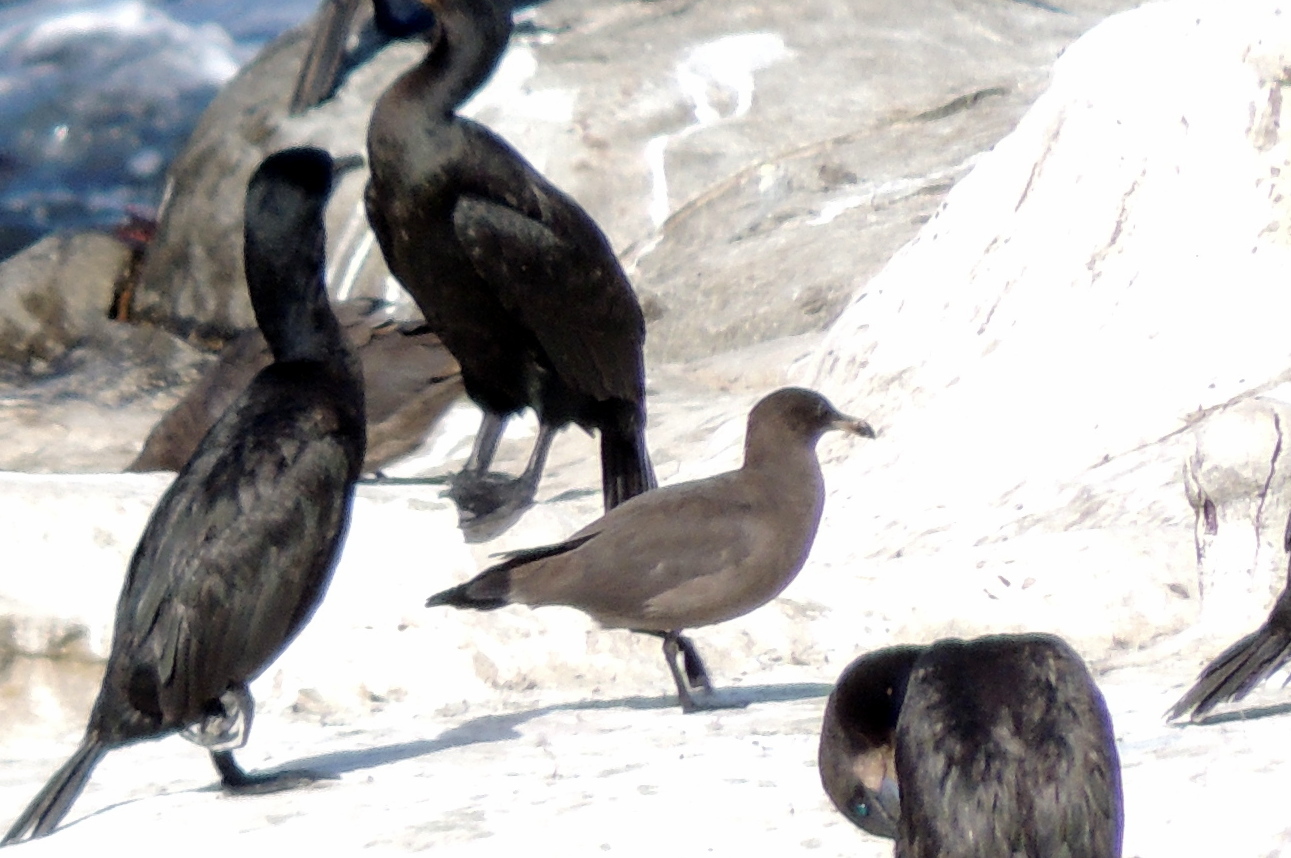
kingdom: Animalia
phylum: Chordata
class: Aves
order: Charadriiformes
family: Laridae
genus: Larus
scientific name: Larus heermanni
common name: Heermann's gull
